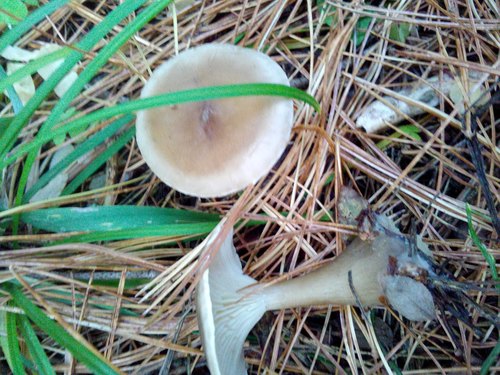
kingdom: Fungi
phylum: Basidiomycota
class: Agaricomycetes
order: Agaricales
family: Hygrophoraceae
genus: Ampulloclitocybe
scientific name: Ampulloclitocybe clavipes
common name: Club foot
